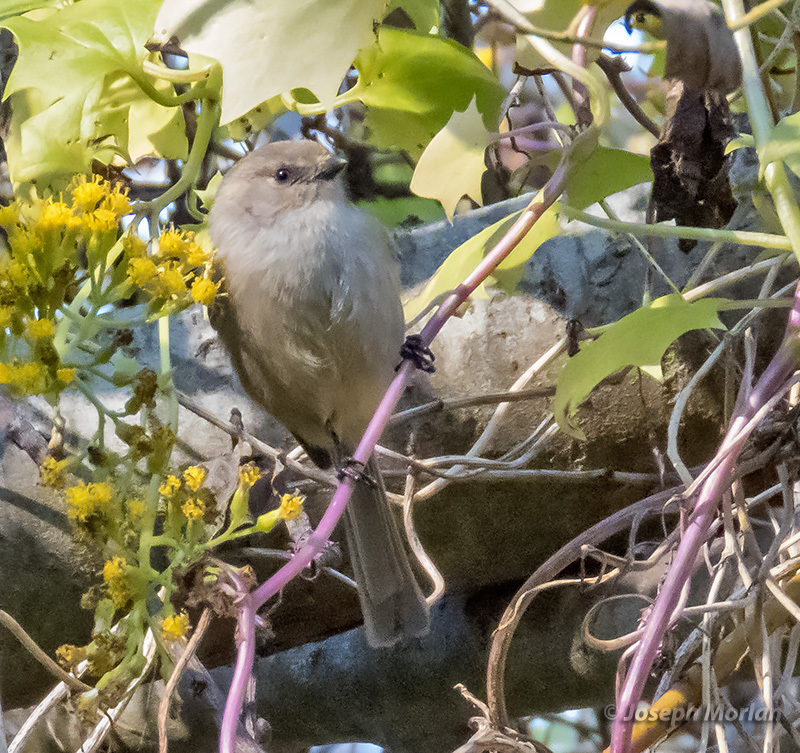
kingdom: Animalia
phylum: Chordata
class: Aves
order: Passeriformes
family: Aegithalidae
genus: Psaltriparus
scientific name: Psaltriparus minimus
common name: American bushtit
